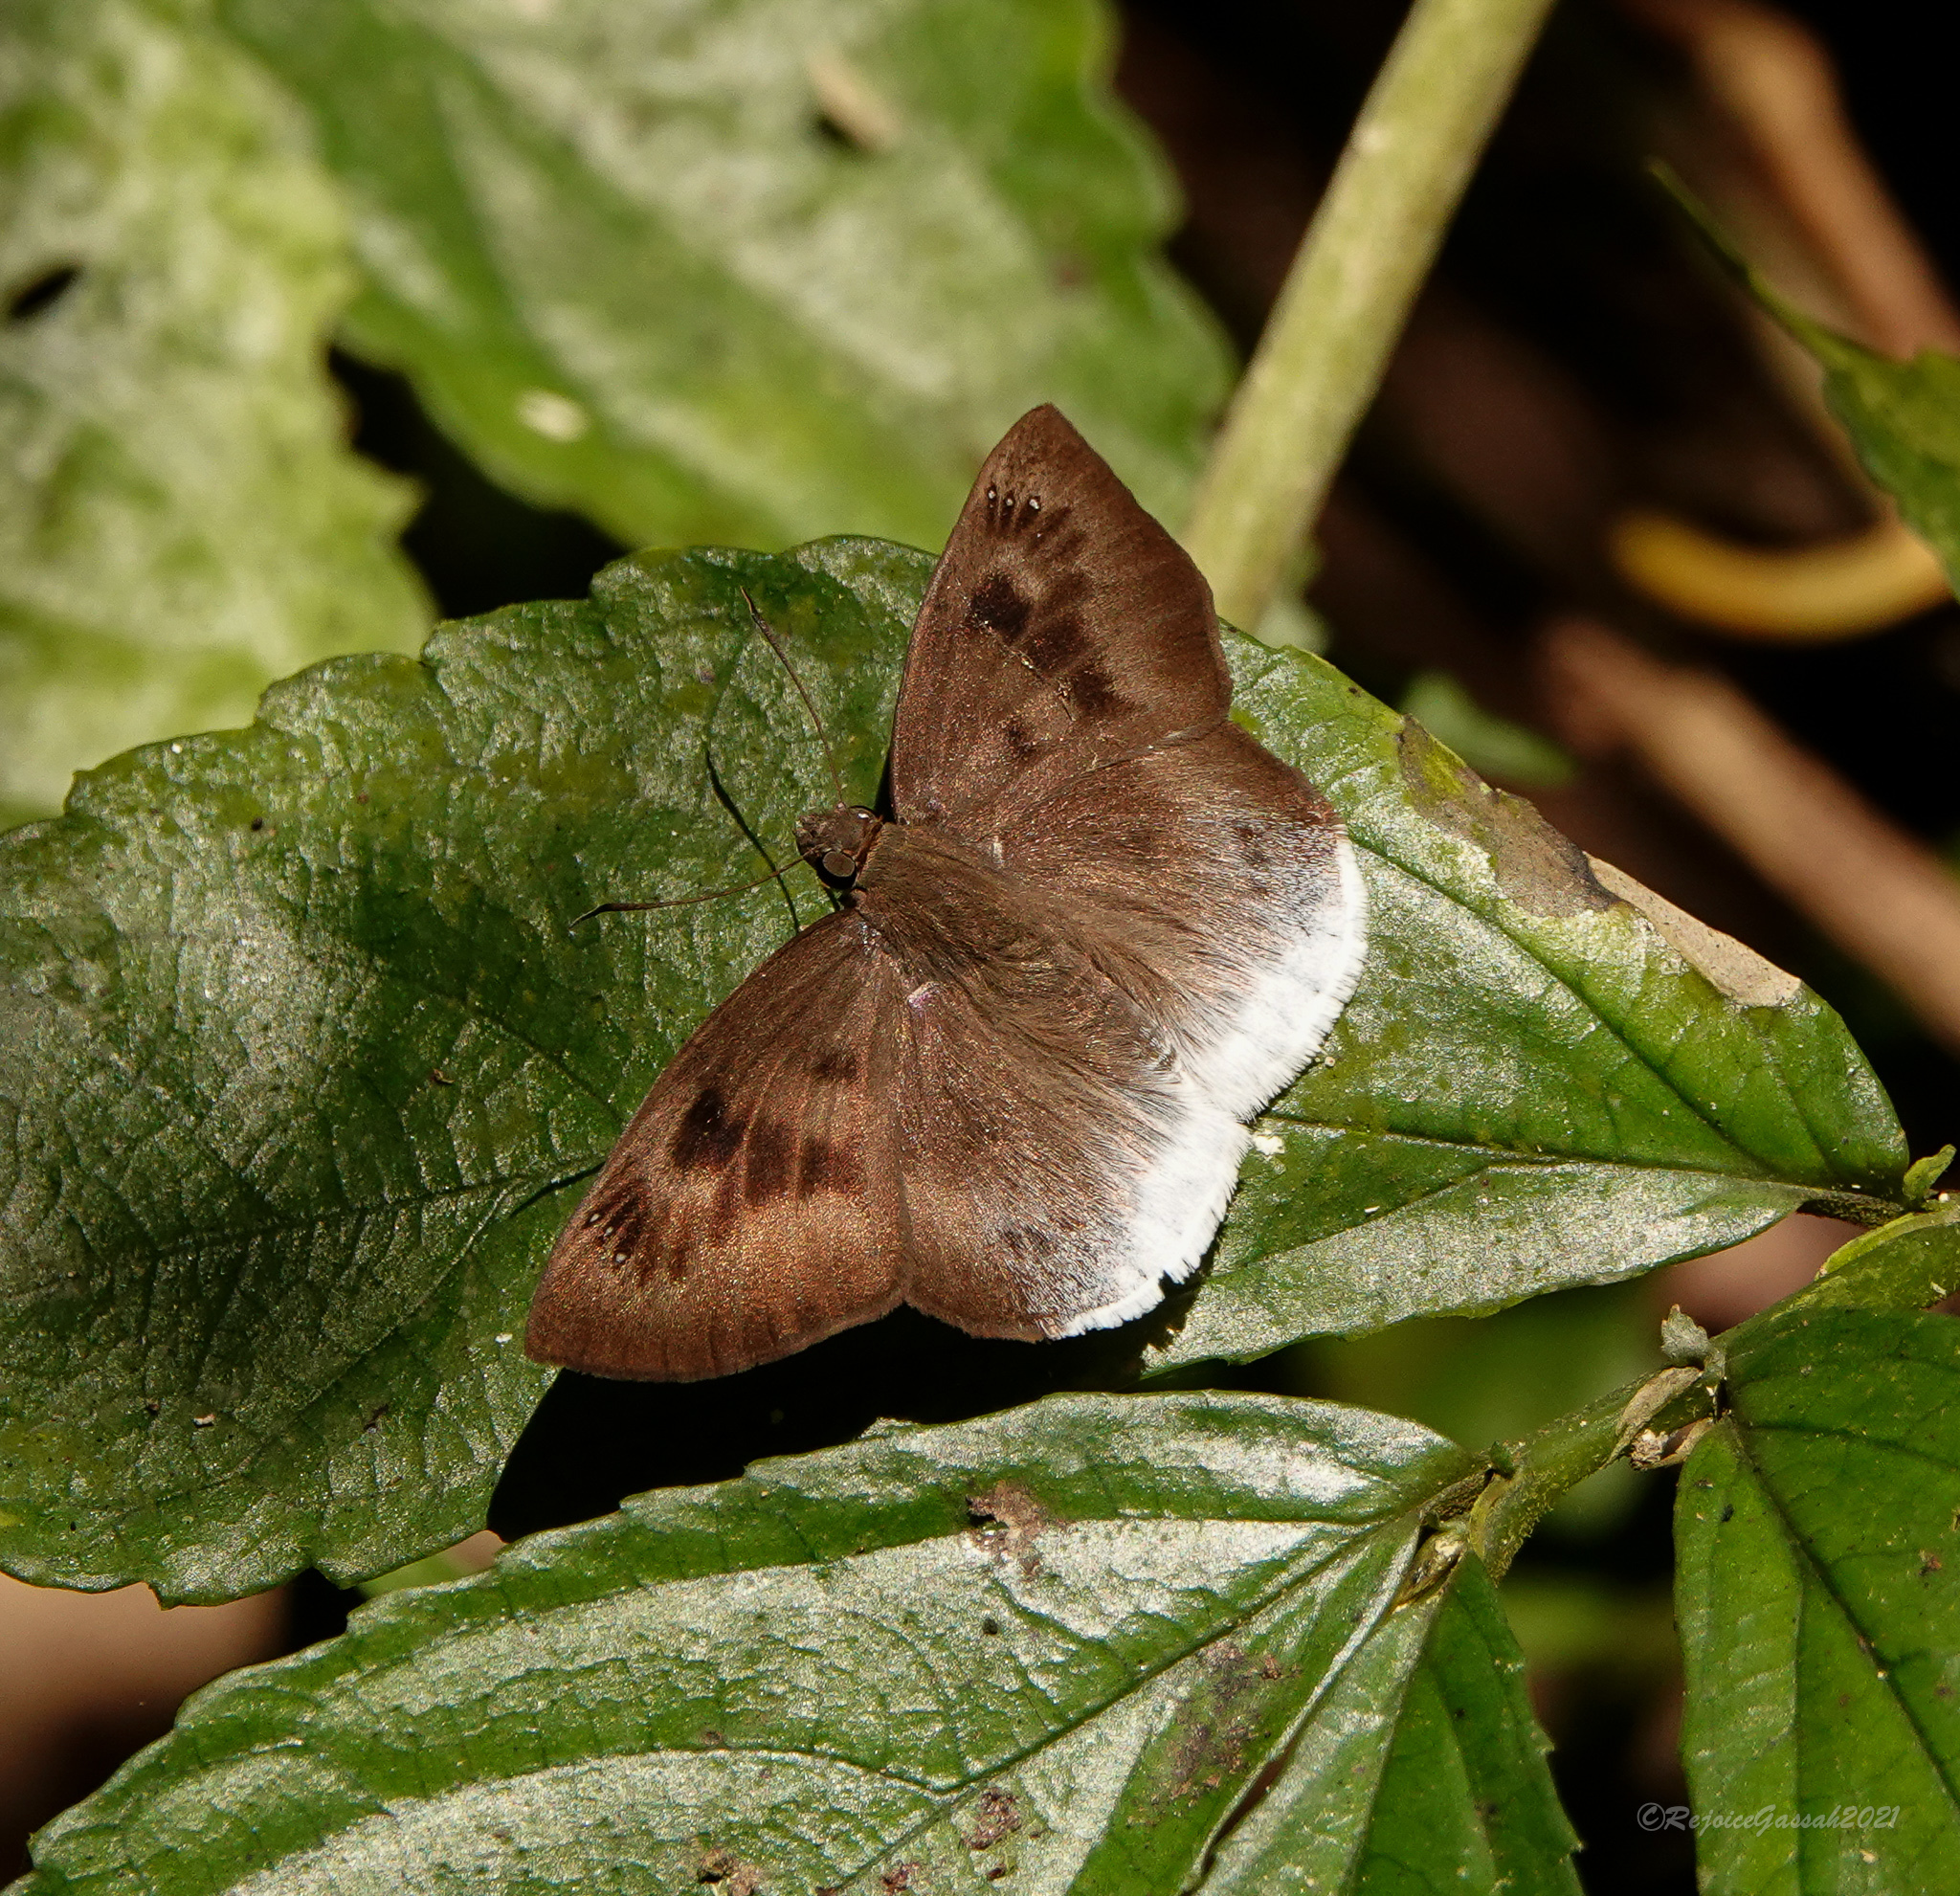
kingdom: Animalia
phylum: Arthropoda
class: Insecta
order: Lepidoptera
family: Hesperiidae
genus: Tagiades
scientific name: Tagiades gana
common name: Suffused snow flat
